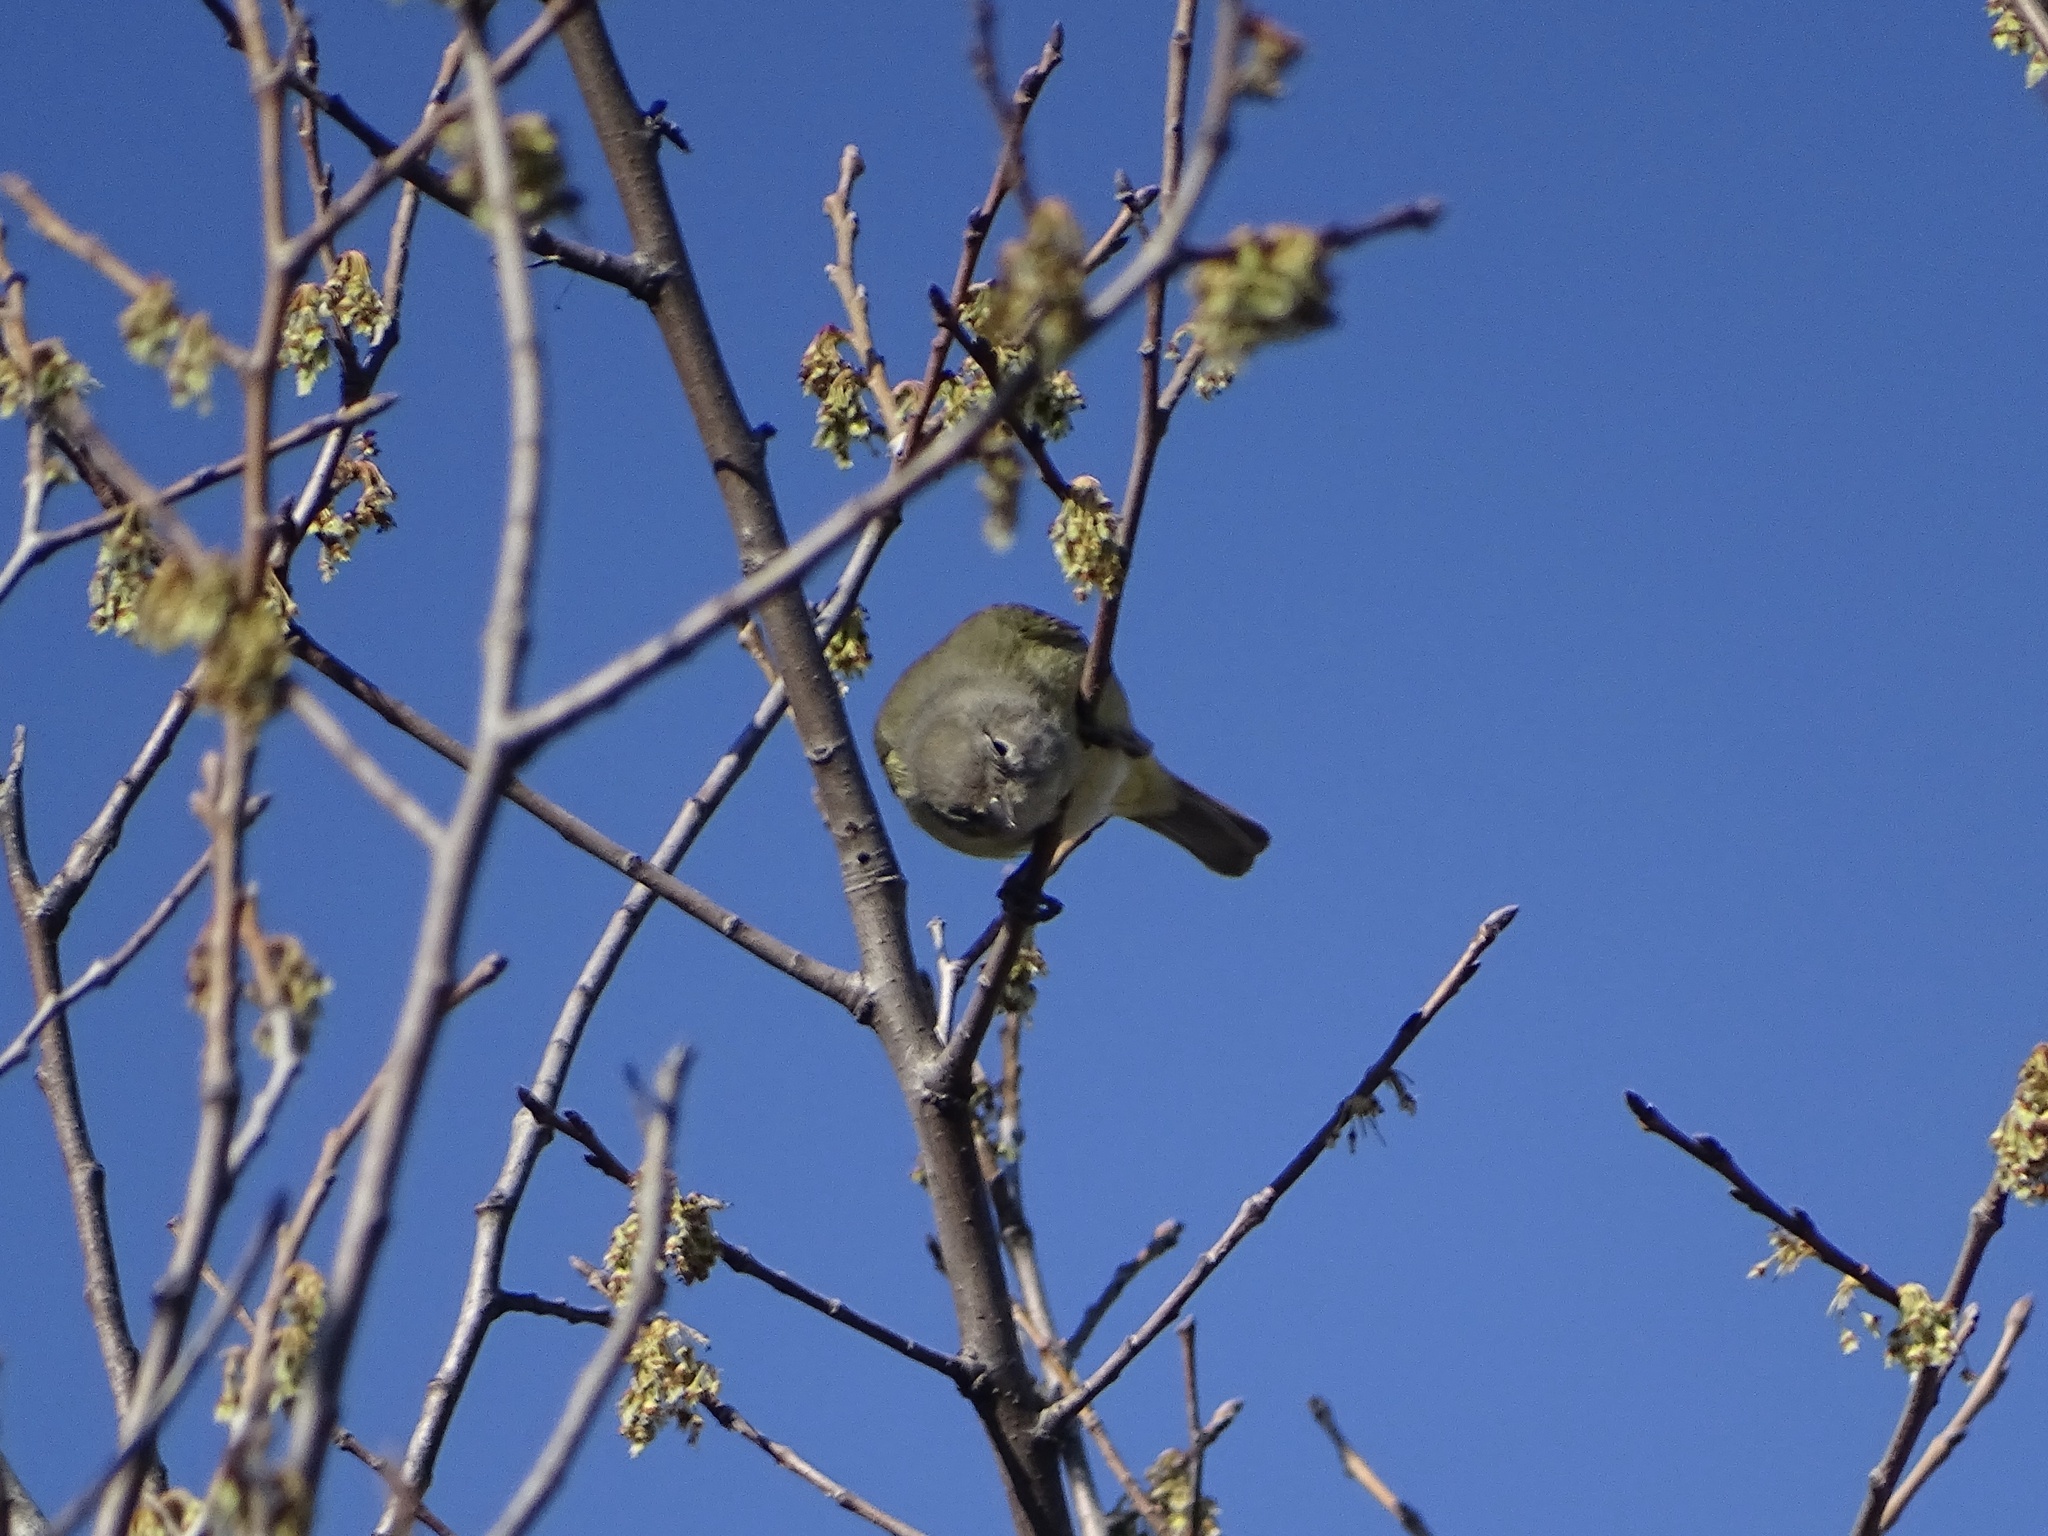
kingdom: Animalia
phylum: Chordata
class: Aves
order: Passeriformes
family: Parulidae
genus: Leiothlypis
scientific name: Leiothlypis celata
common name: Orange-crowned warbler
